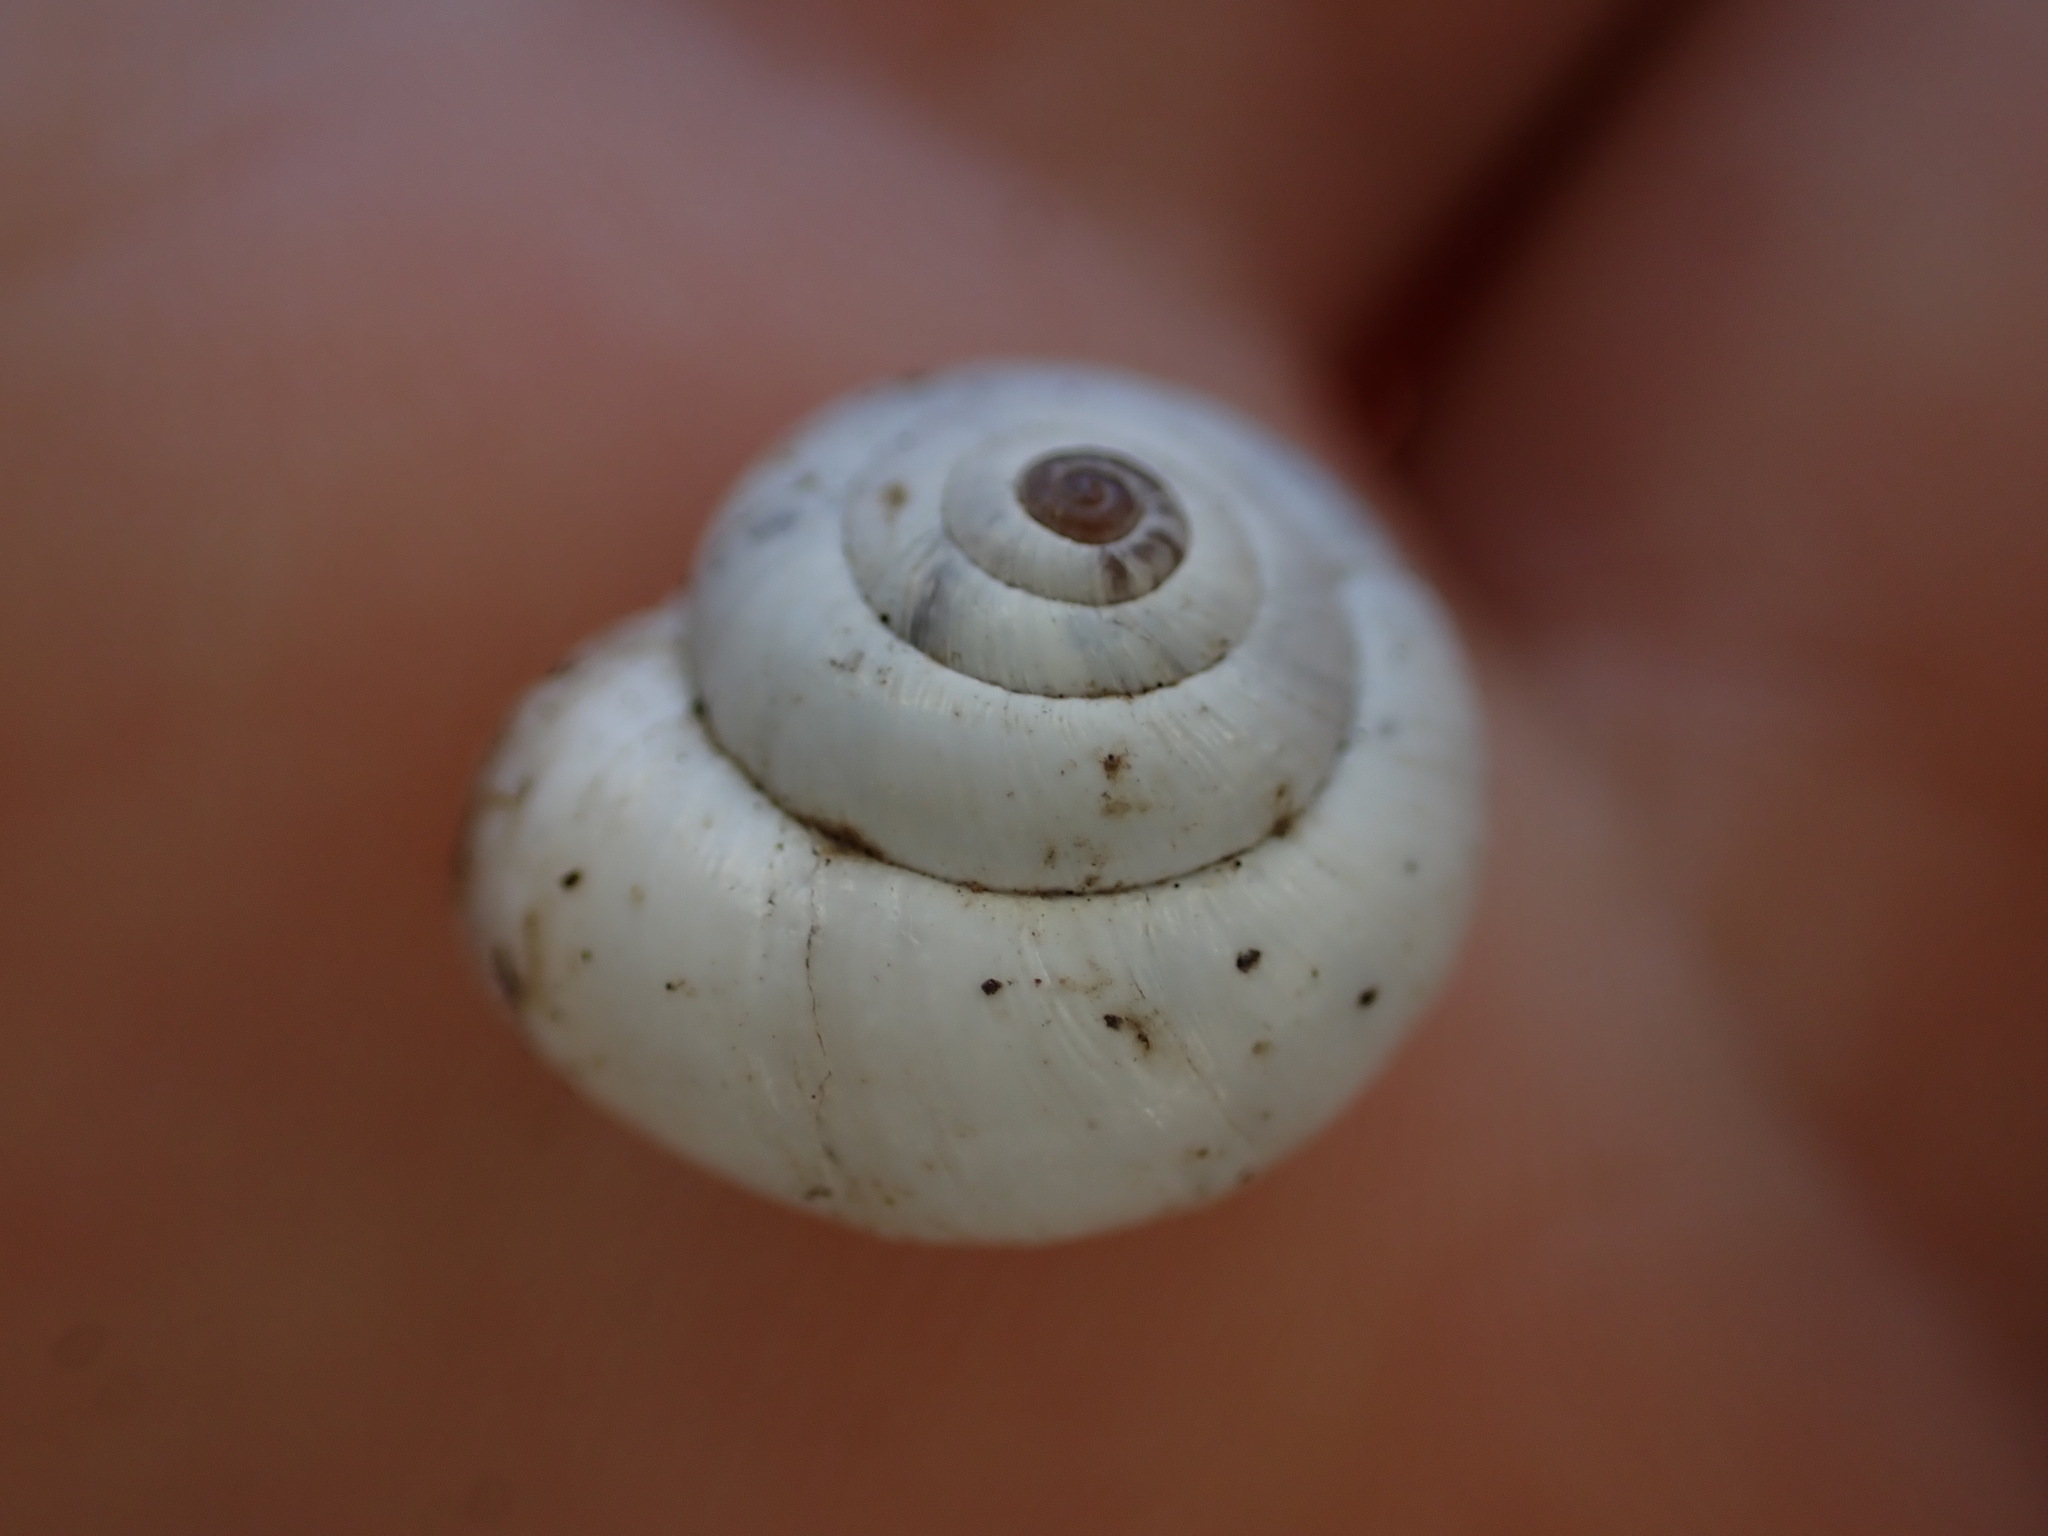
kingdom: Animalia
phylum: Mollusca
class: Gastropoda
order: Stylommatophora
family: Geomitridae
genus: Xeropicta
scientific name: Xeropicta derbentina
